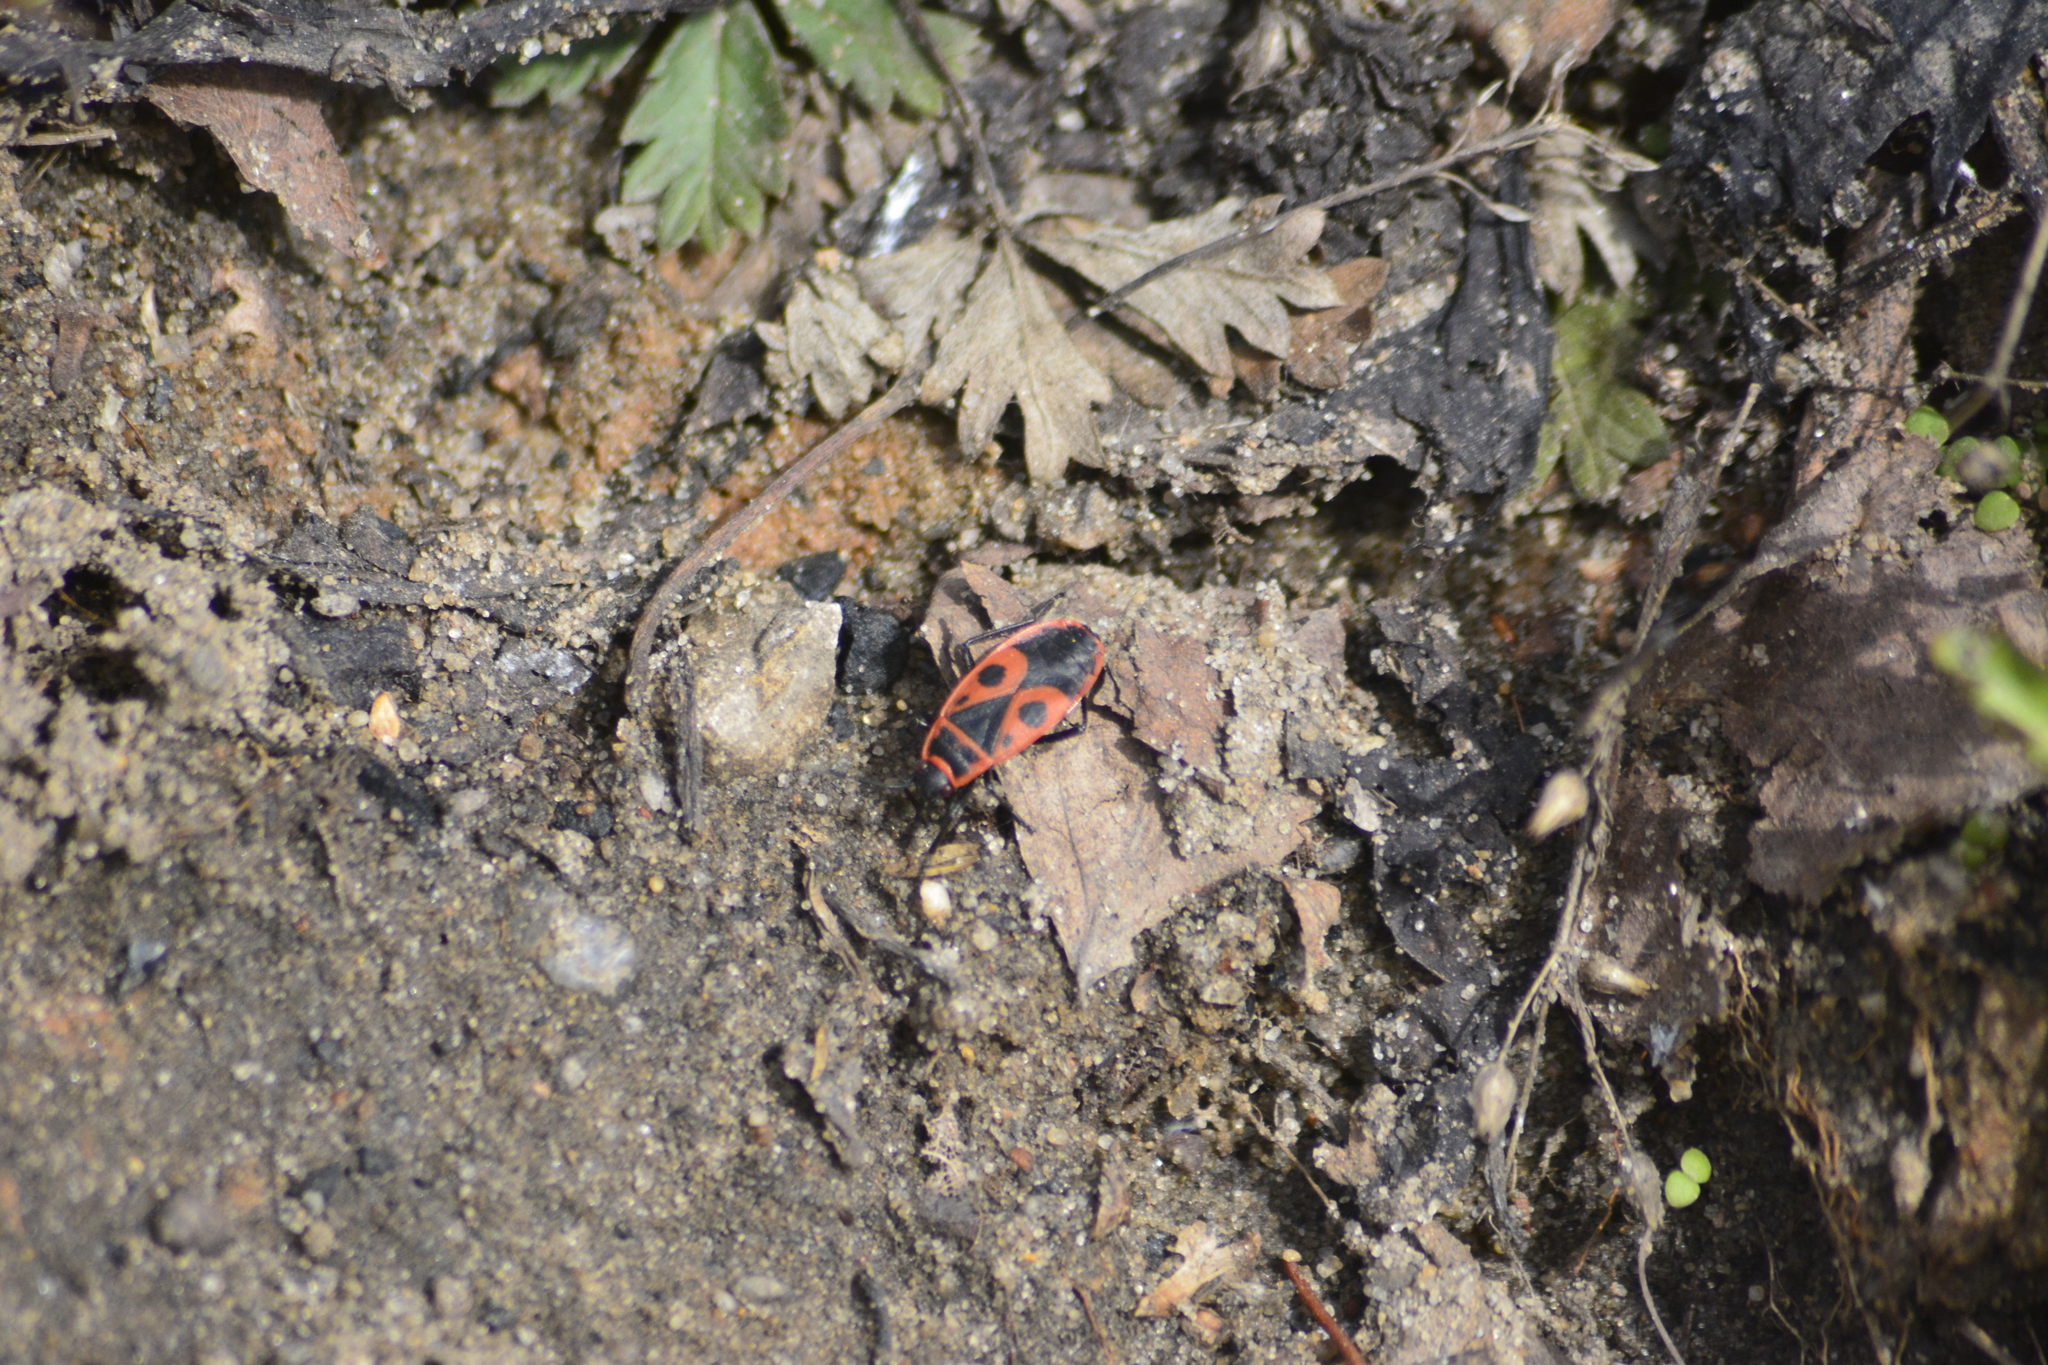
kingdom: Animalia
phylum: Arthropoda
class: Insecta
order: Hemiptera
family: Pyrrhocoridae
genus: Pyrrhocoris
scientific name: Pyrrhocoris apterus
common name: Firebug
